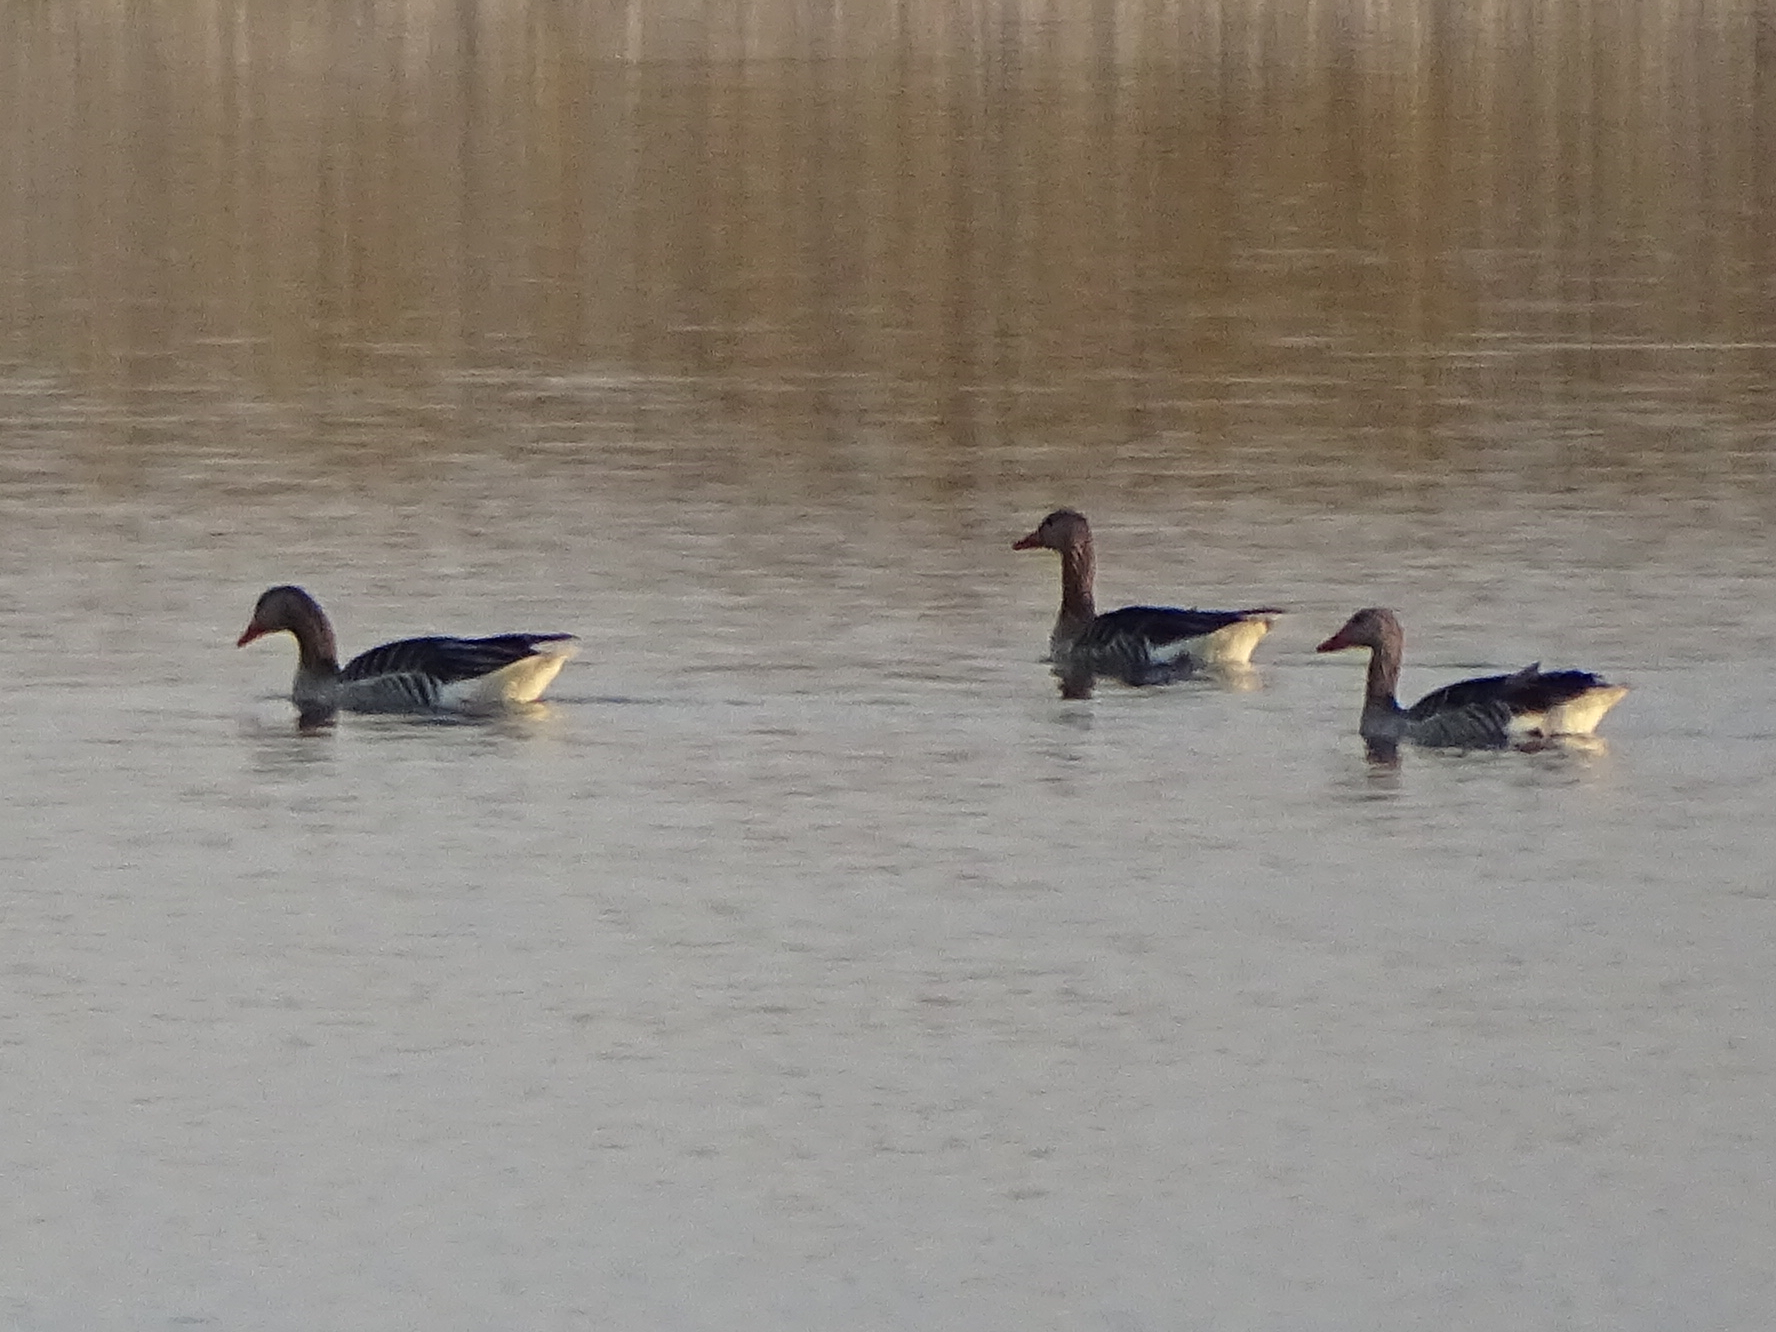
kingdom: Animalia
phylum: Chordata
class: Aves
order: Anseriformes
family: Anatidae
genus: Anser
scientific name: Anser anser
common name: Greylag goose
